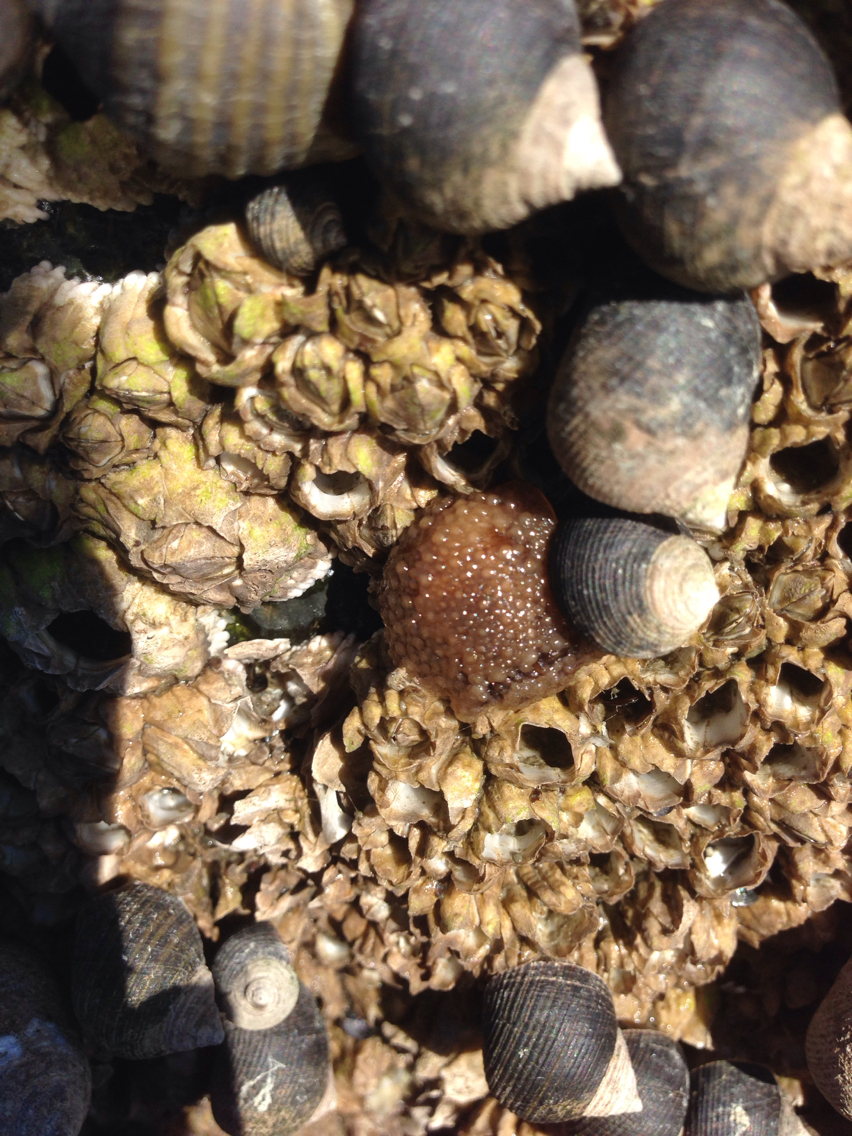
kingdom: Animalia
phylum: Arthropoda
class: Maxillopoda
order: Sessilia
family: Archaeobalanidae
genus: Semibalanus
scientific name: Semibalanus balanoides
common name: Acorn barnacle
